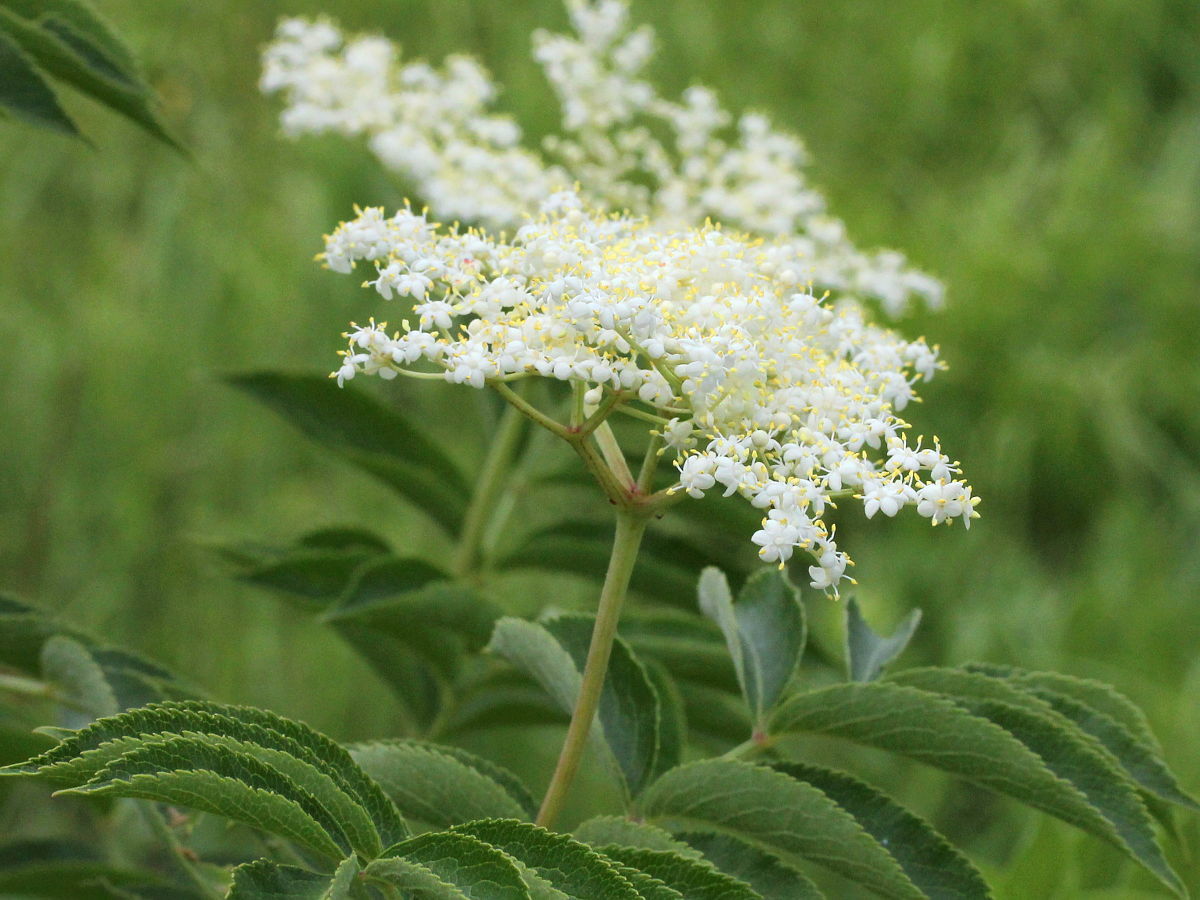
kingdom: Plantae
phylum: Tracheophyta
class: Magnoliopsida
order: Dipsacales
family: Viburnaceae
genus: Sambucus
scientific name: Sambucus canadensis
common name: American elder
